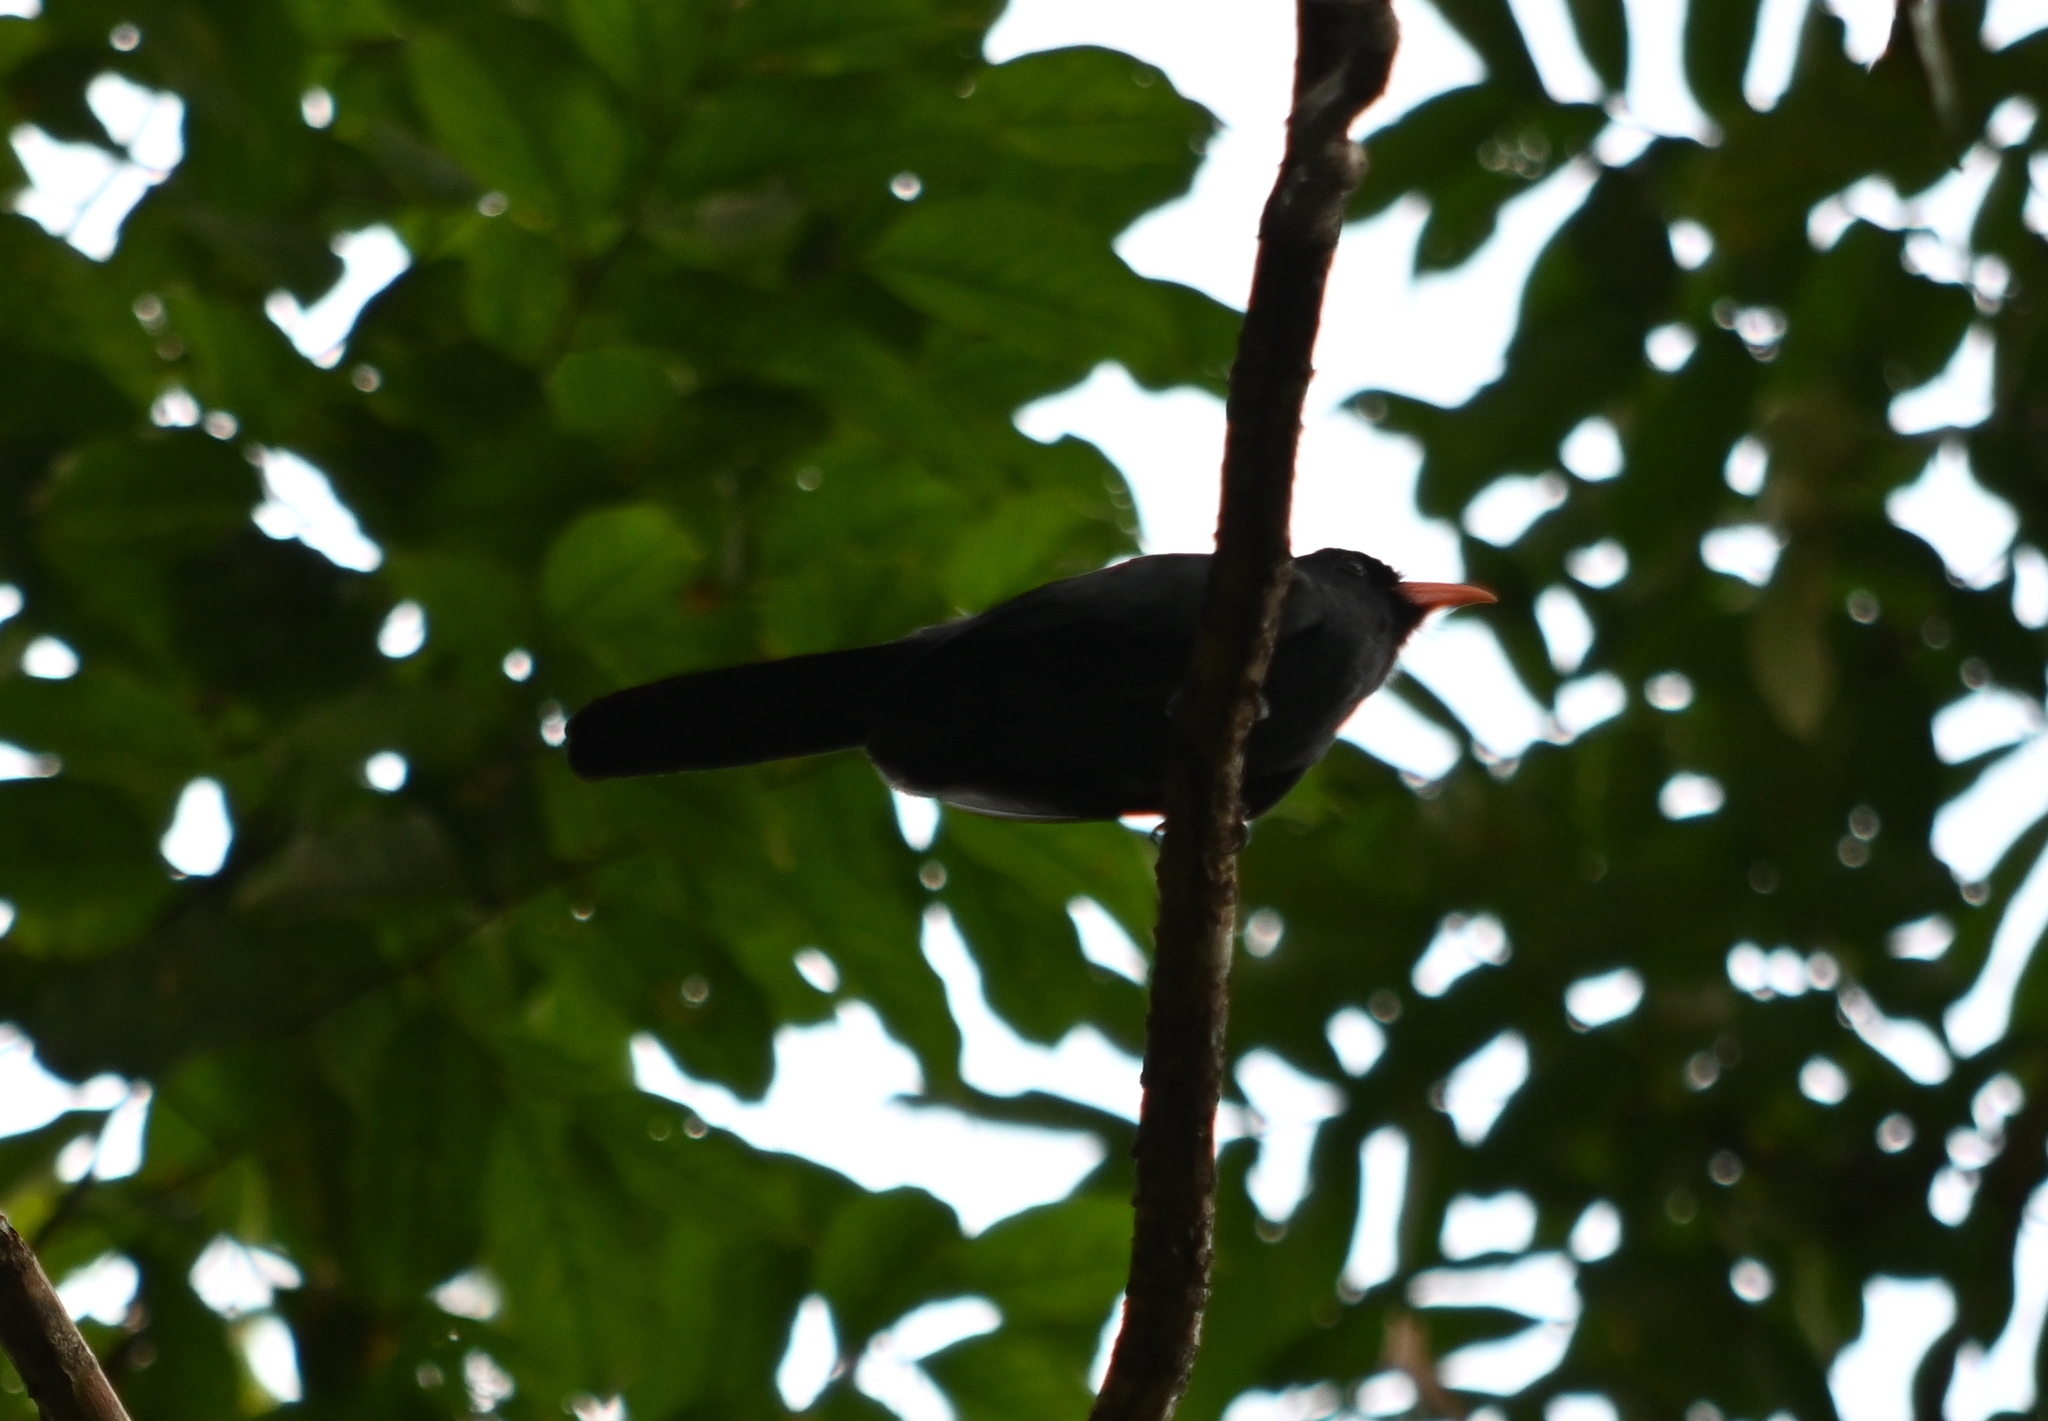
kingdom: Animalia
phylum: Chordata
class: Aves
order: Piciformes
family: Bucconidae
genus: Monasa
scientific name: Monasa nigrifrons
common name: Black-fronted nunbird
